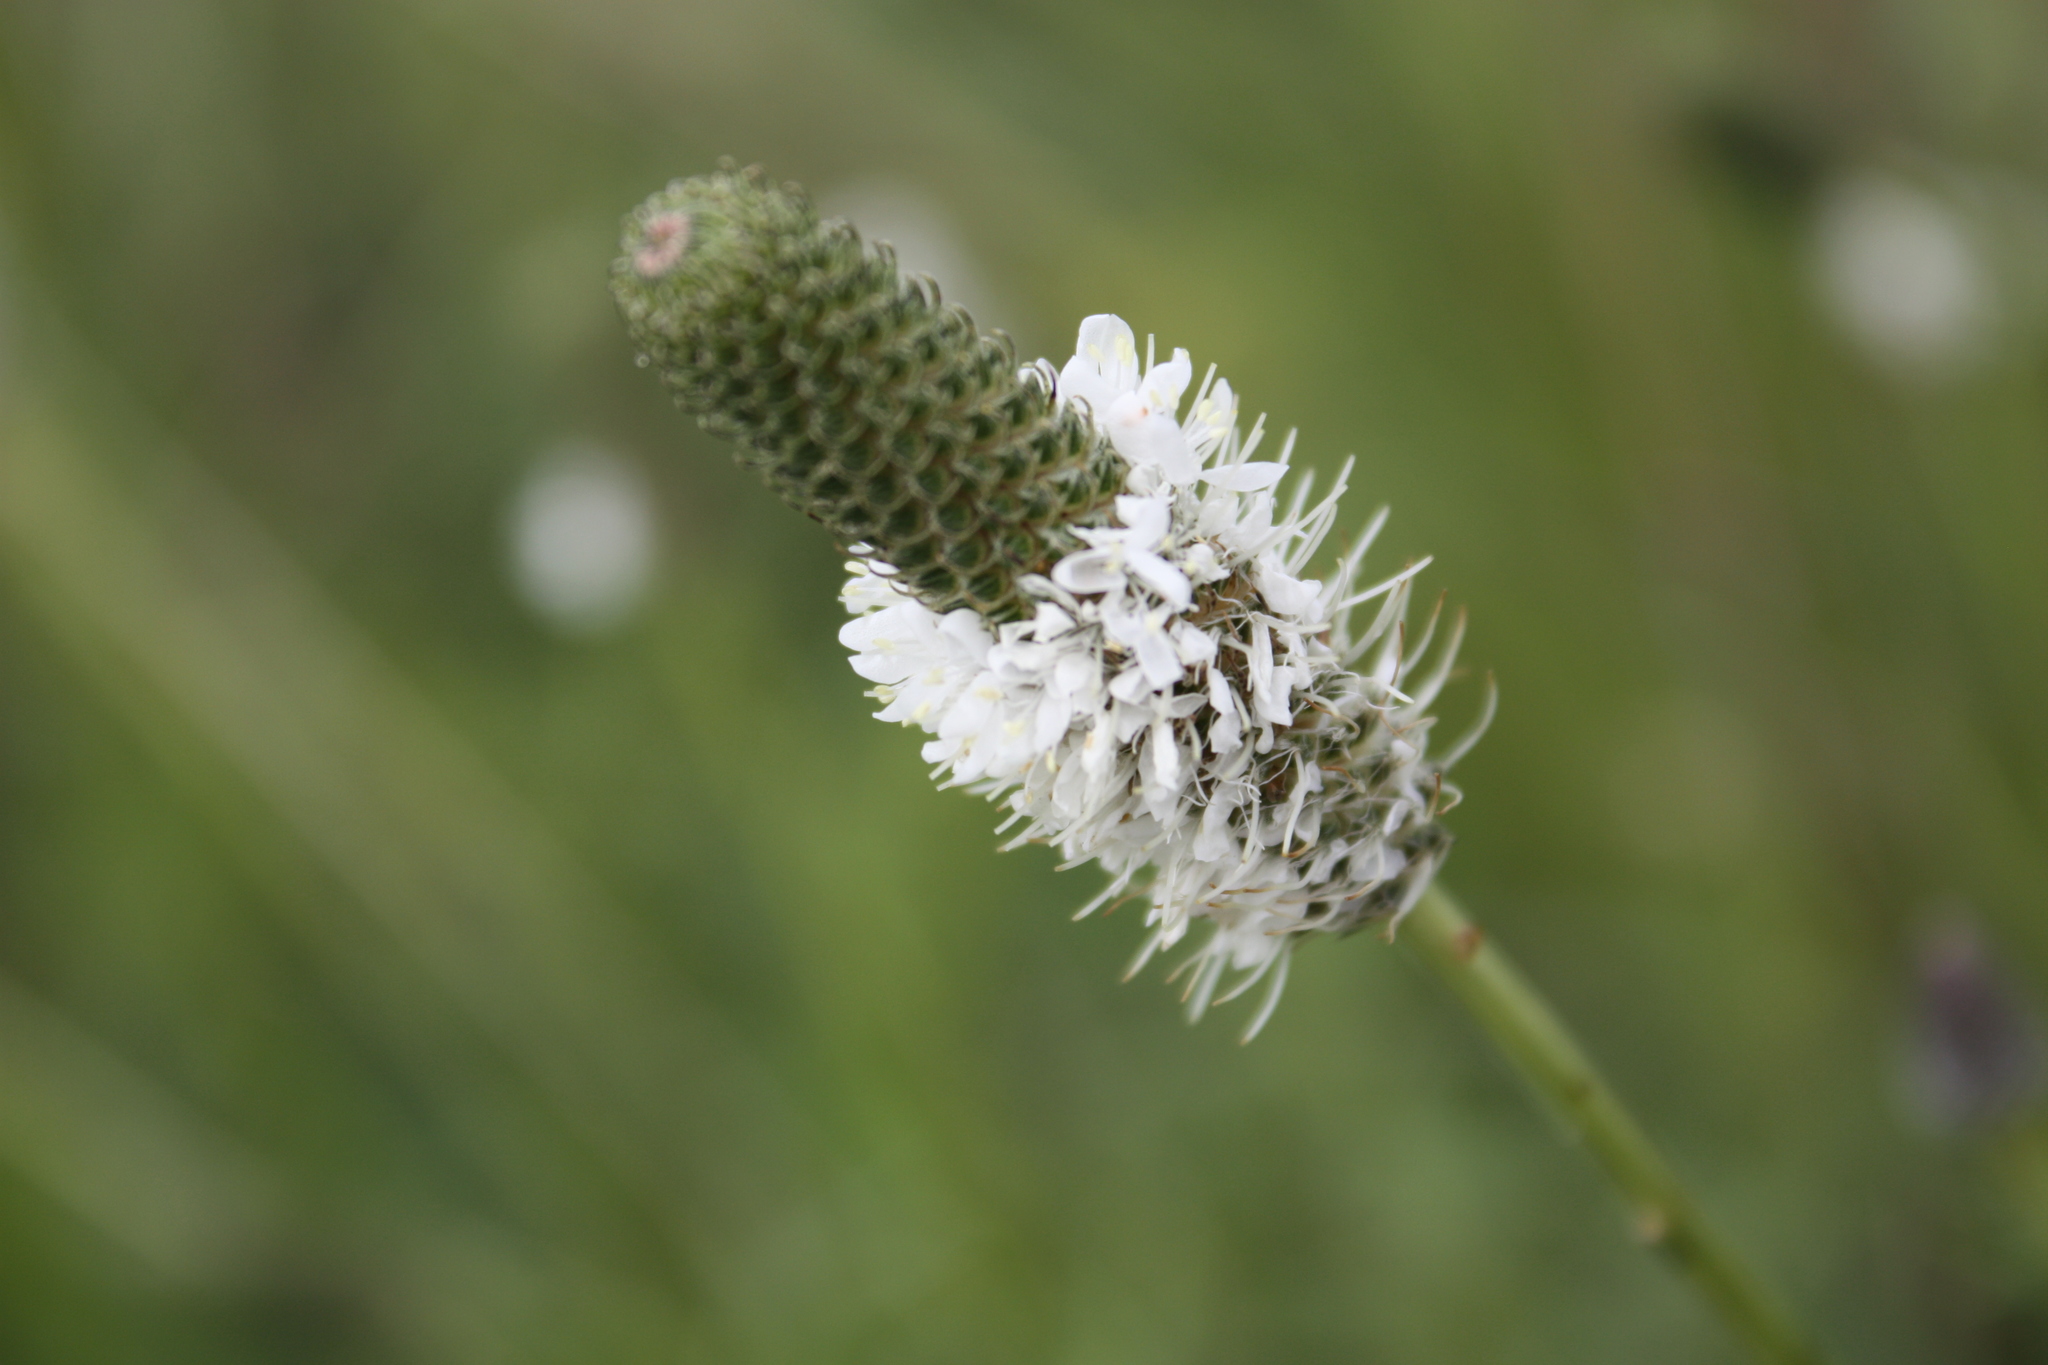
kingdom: Plantae
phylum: Tracheophyta
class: Magnoliopsida
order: Fabales
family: Fabaceae
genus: Dalea
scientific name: Dalea candida
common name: White prairie-clover
